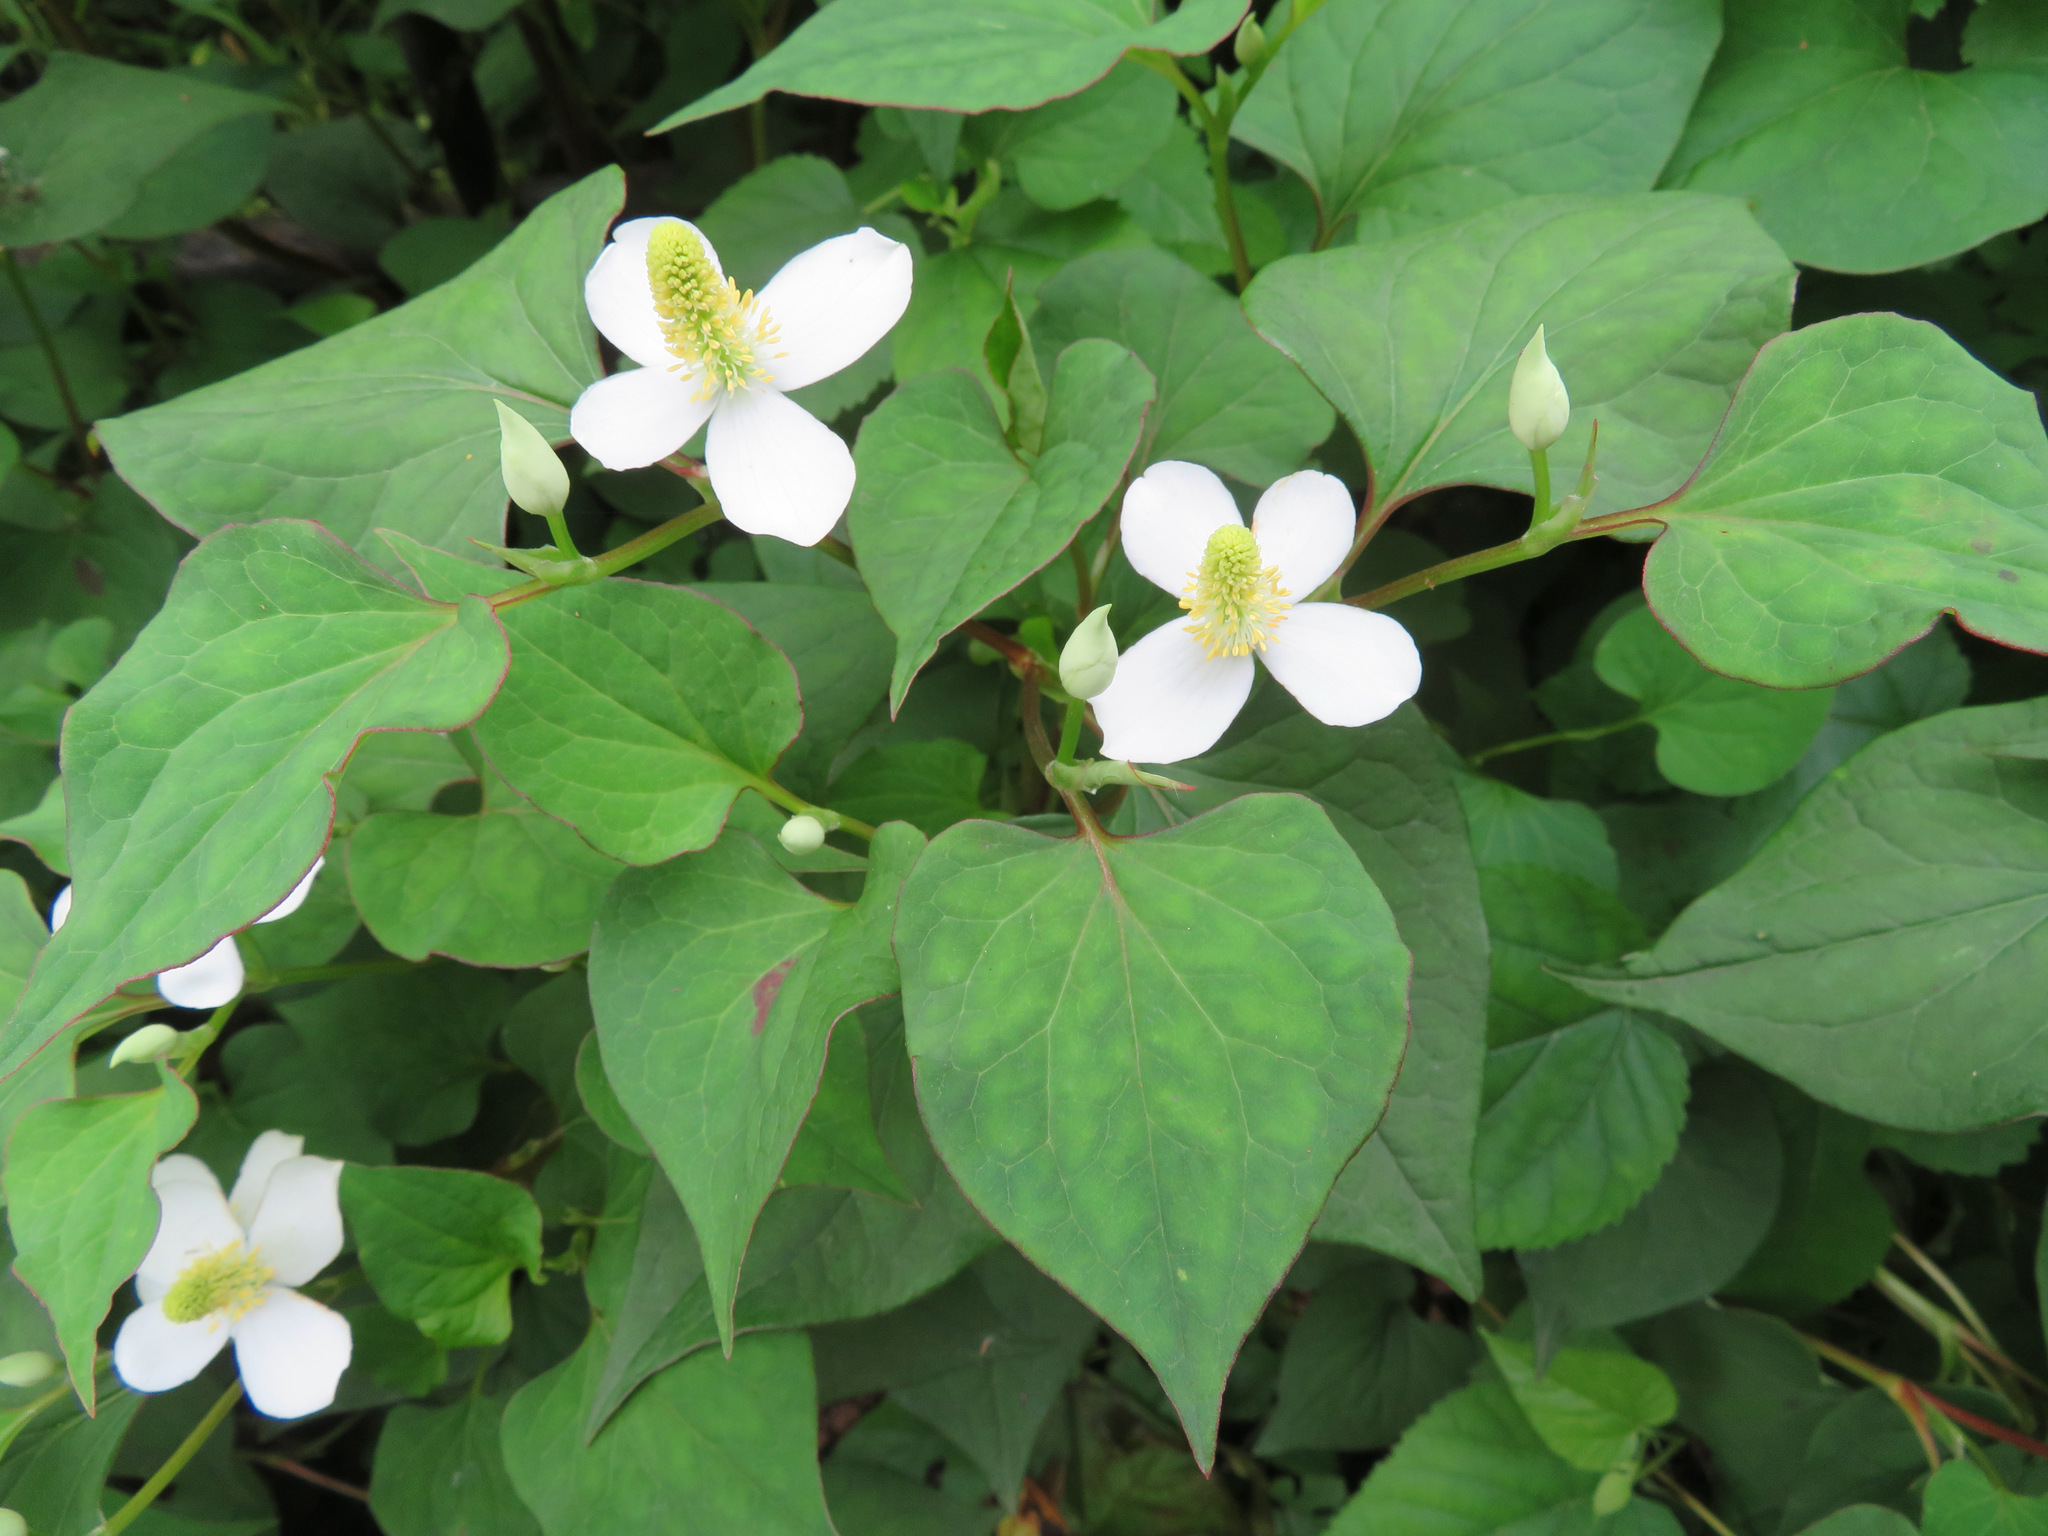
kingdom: Plantae
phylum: Tracheophyta
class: Magnoliopsida
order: Piperales
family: Saururaceae
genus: Houttuynia
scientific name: Houttuynia cordata
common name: Chameleon
